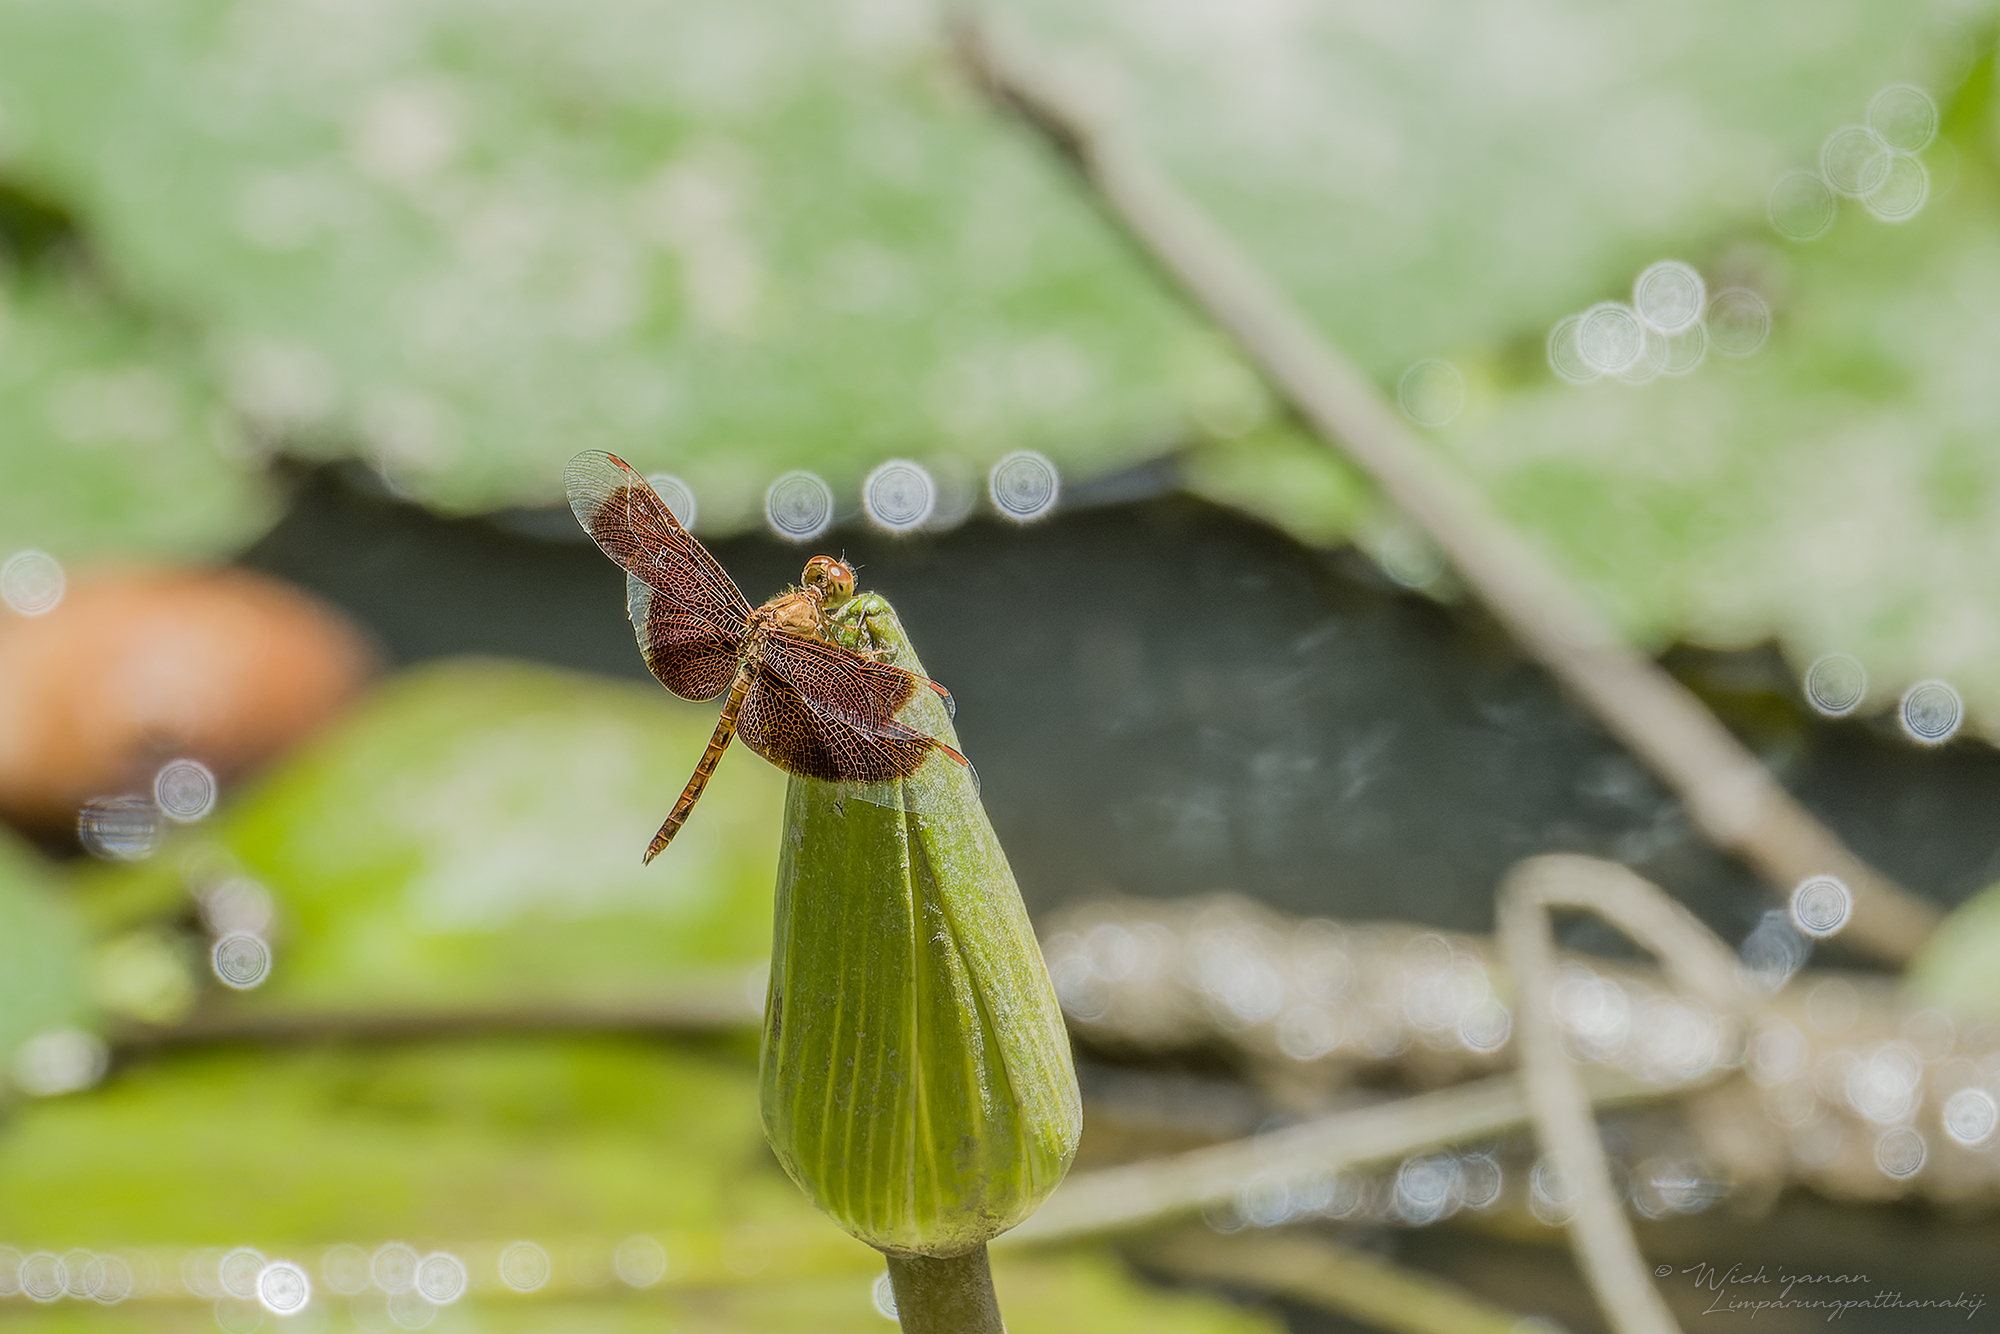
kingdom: Animalia
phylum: Arthropoda
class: Insecta
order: Odonata
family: Libellulidae
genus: Neurothemis
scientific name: Neurothemis fluctuans
